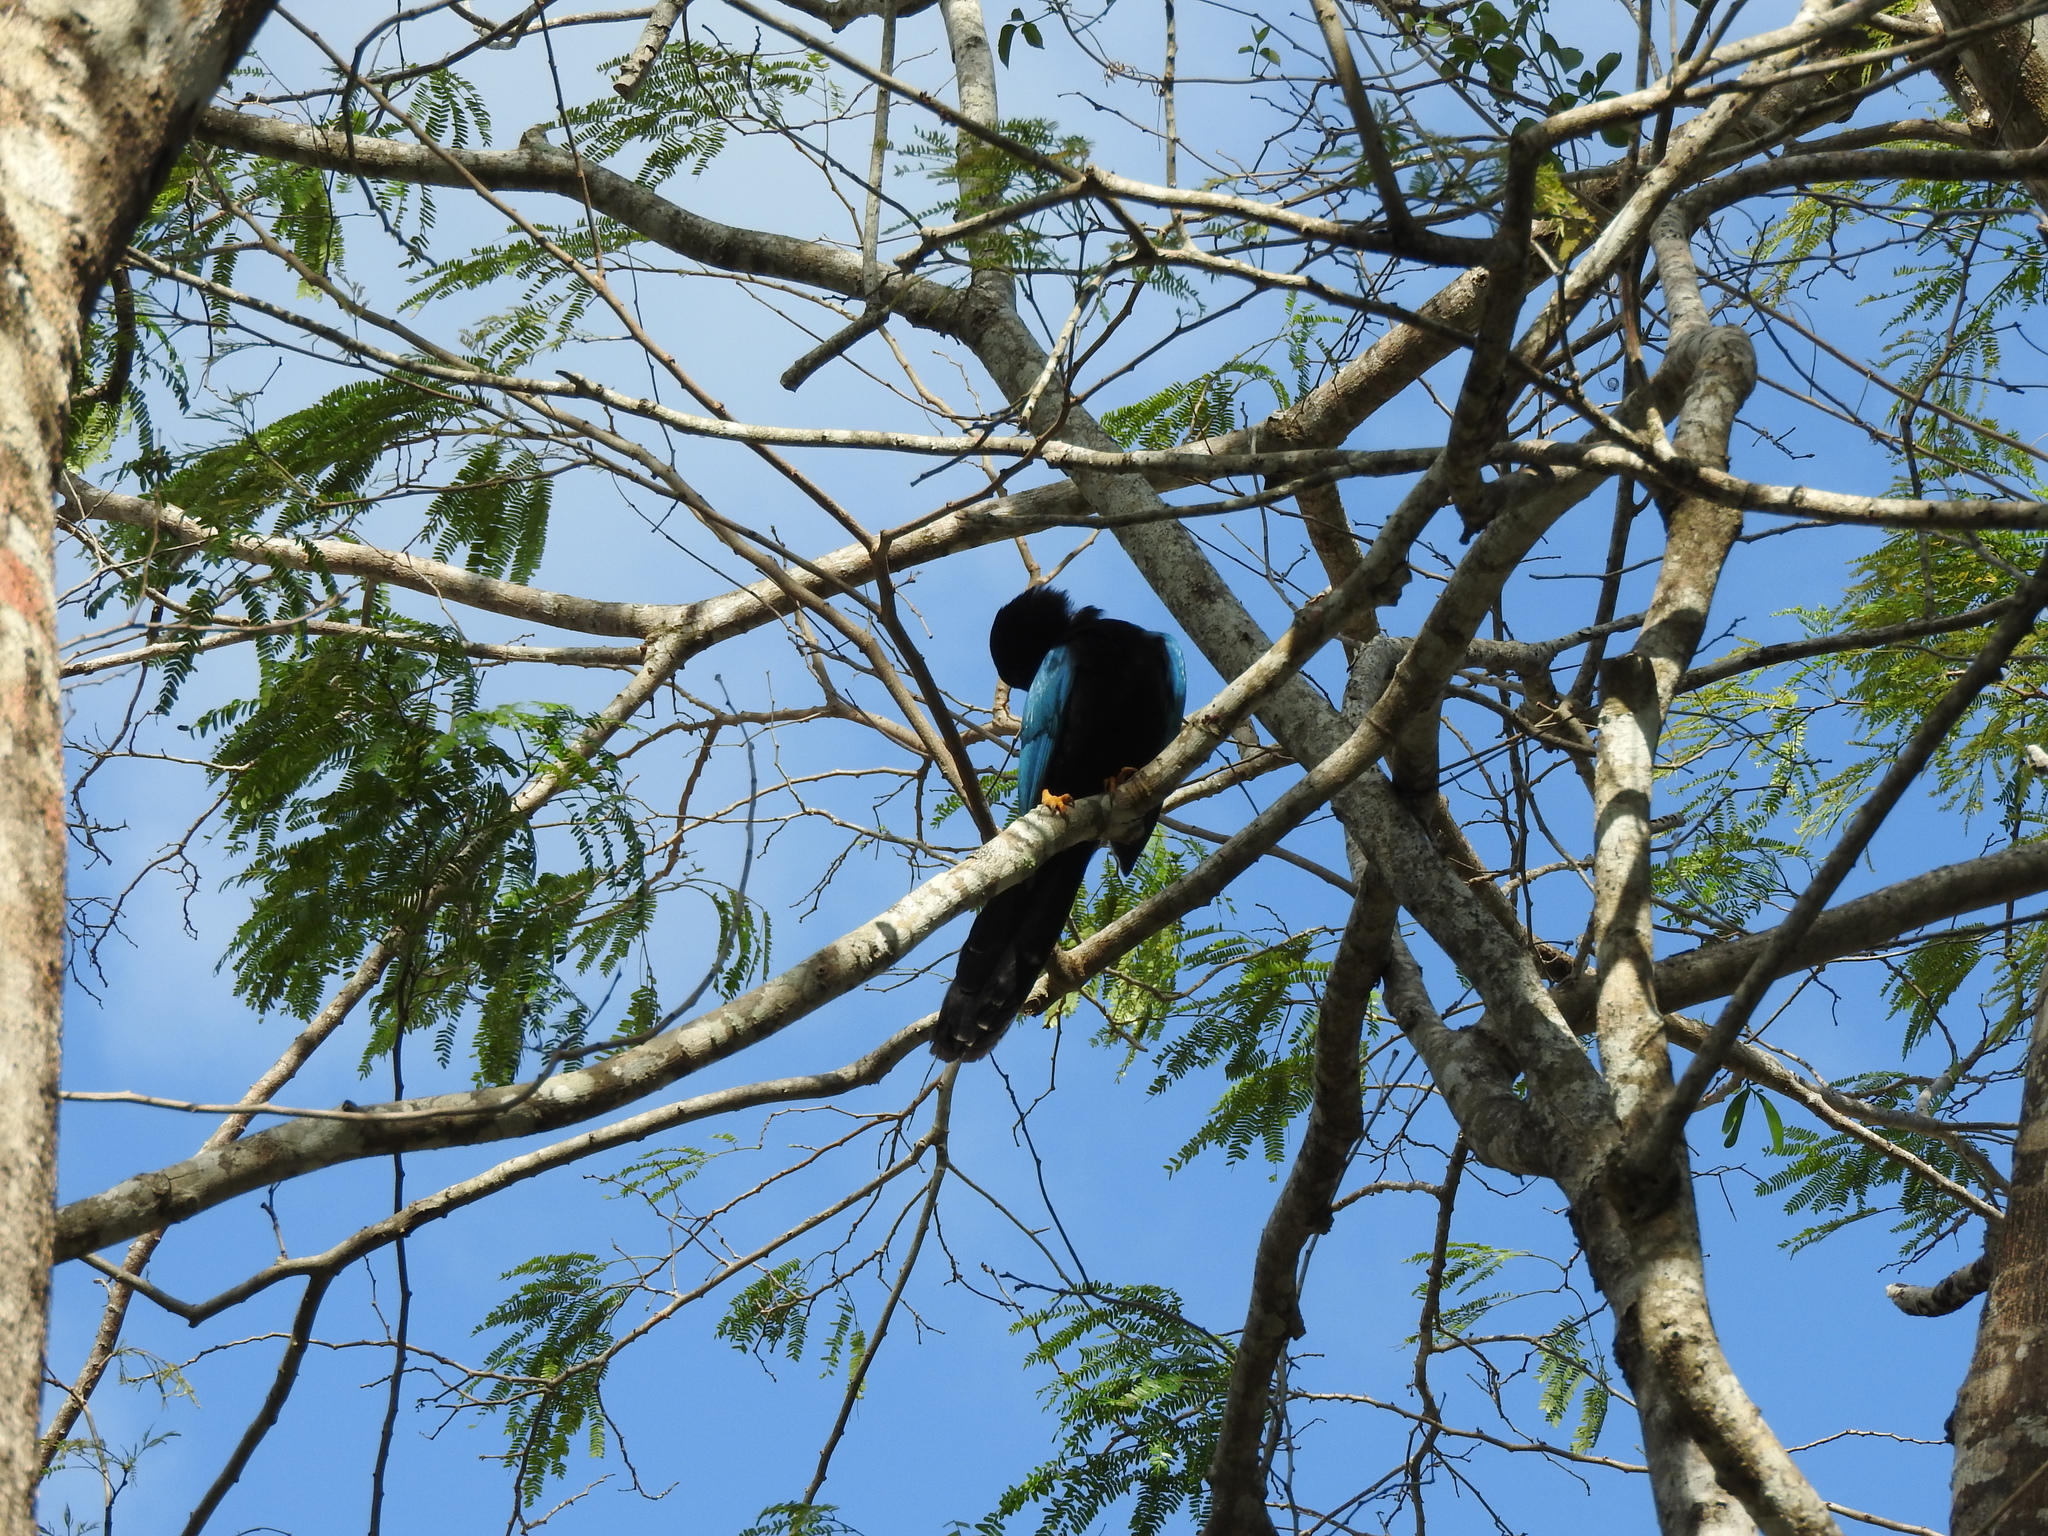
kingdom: Animalia
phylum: Chordata
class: Aves
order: Passeriformes
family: Corvidae
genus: Cyanocorax
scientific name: Cyanocorax yucatanicus
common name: Yucatan jay
